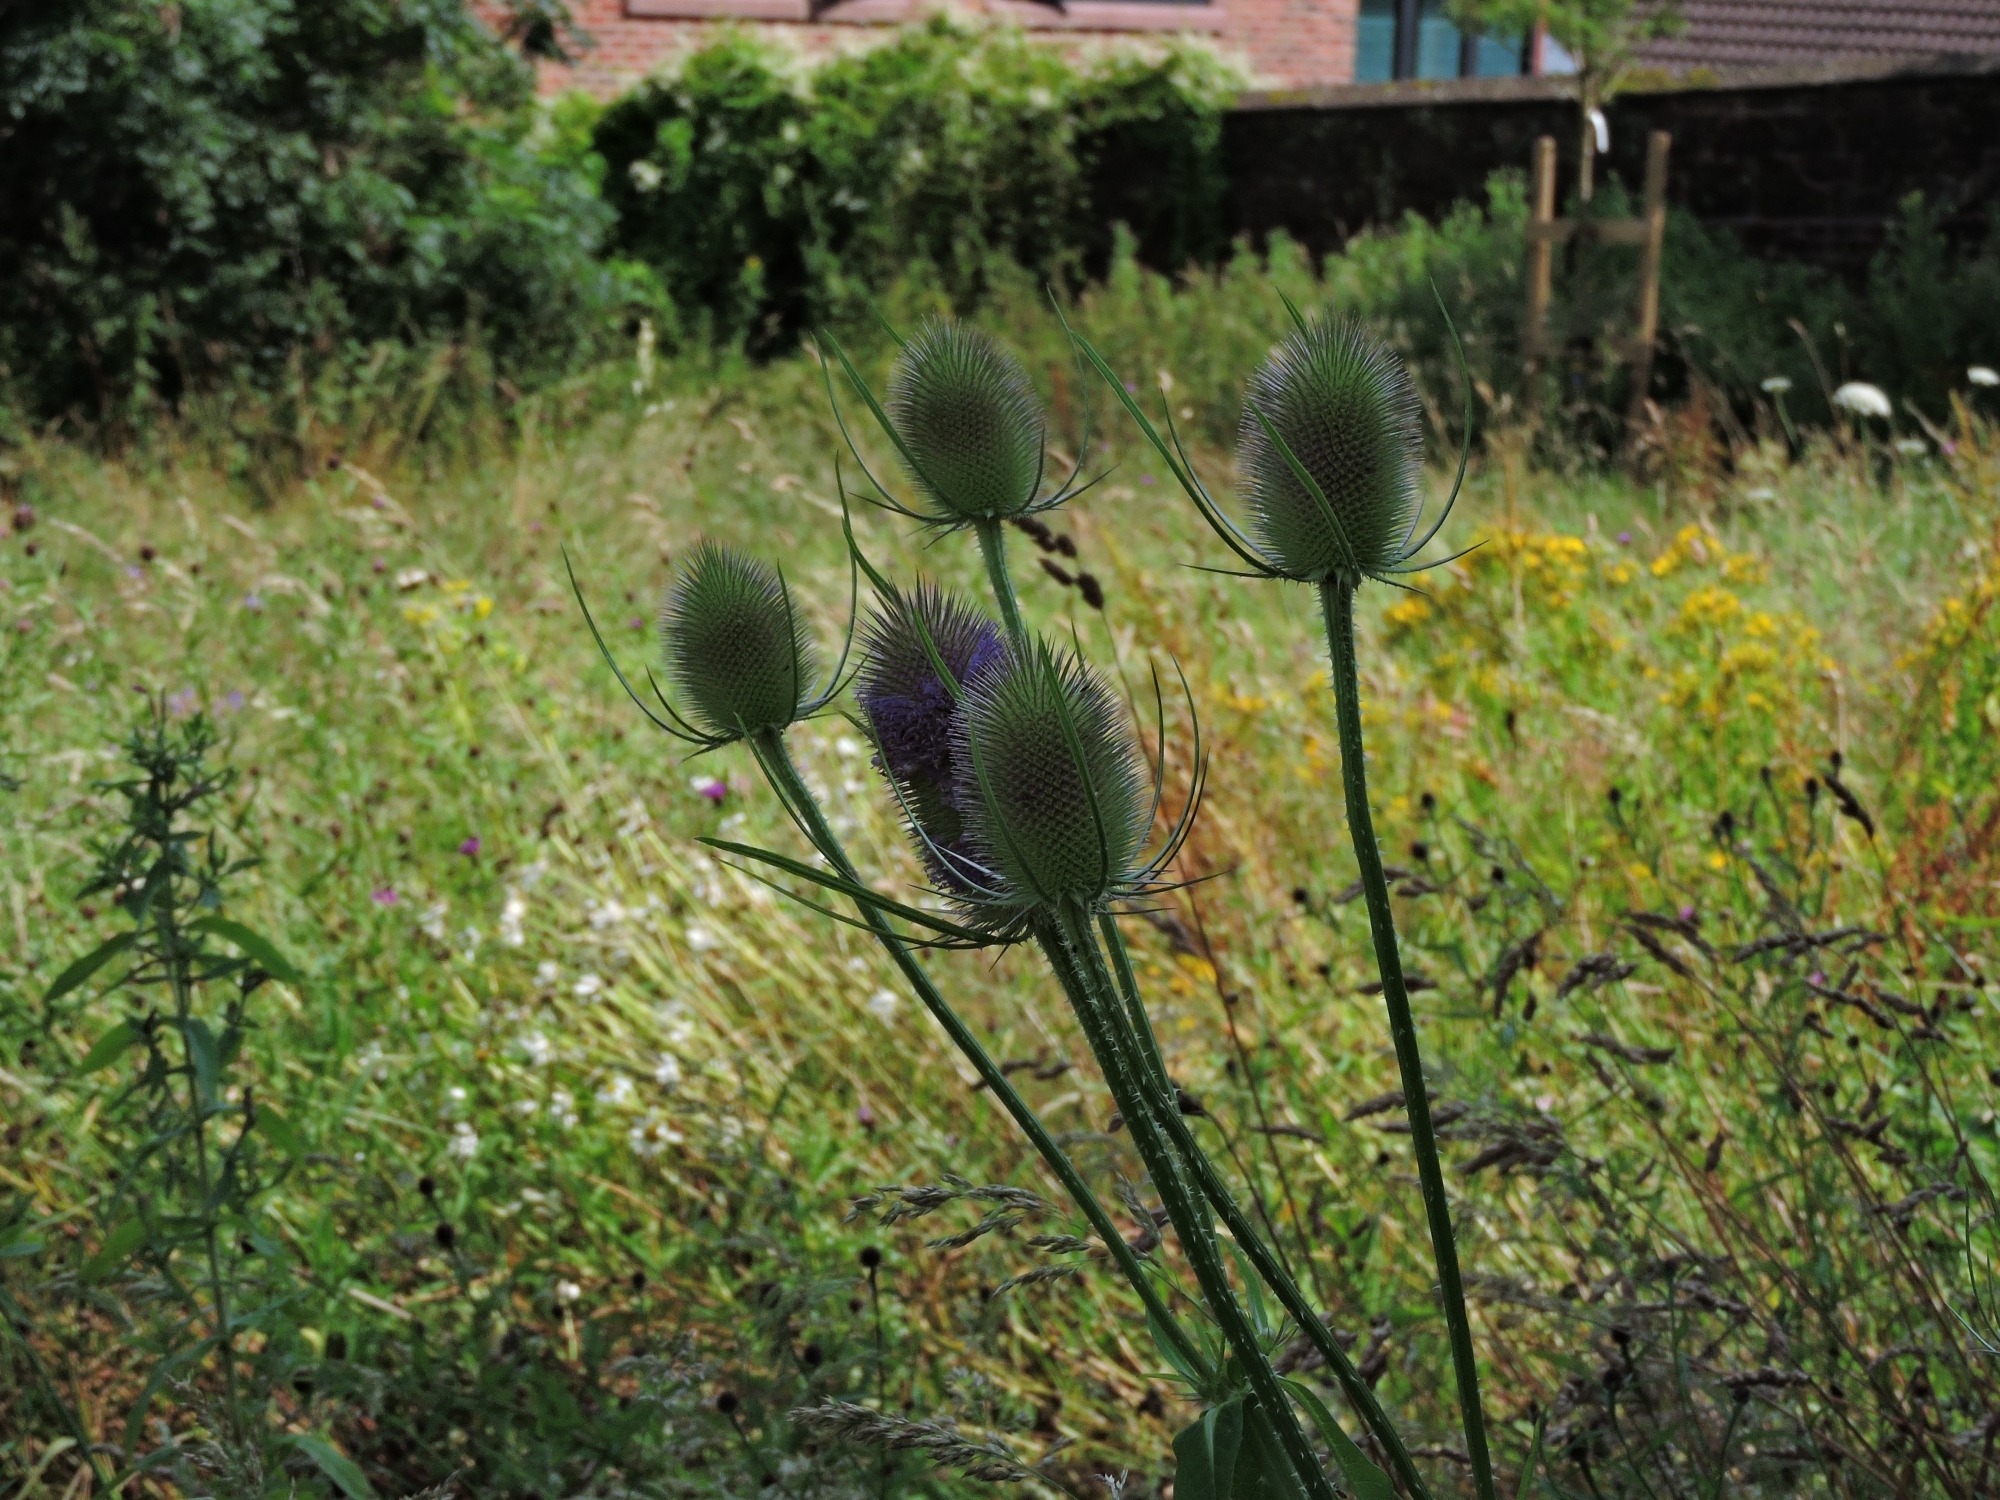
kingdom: Plantae
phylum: Tracheophyta
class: Magnoliopsida
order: Dipsacales
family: Caprifoliaceae
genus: Dipsacus
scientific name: Dipsacus fullonum
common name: Teasel
